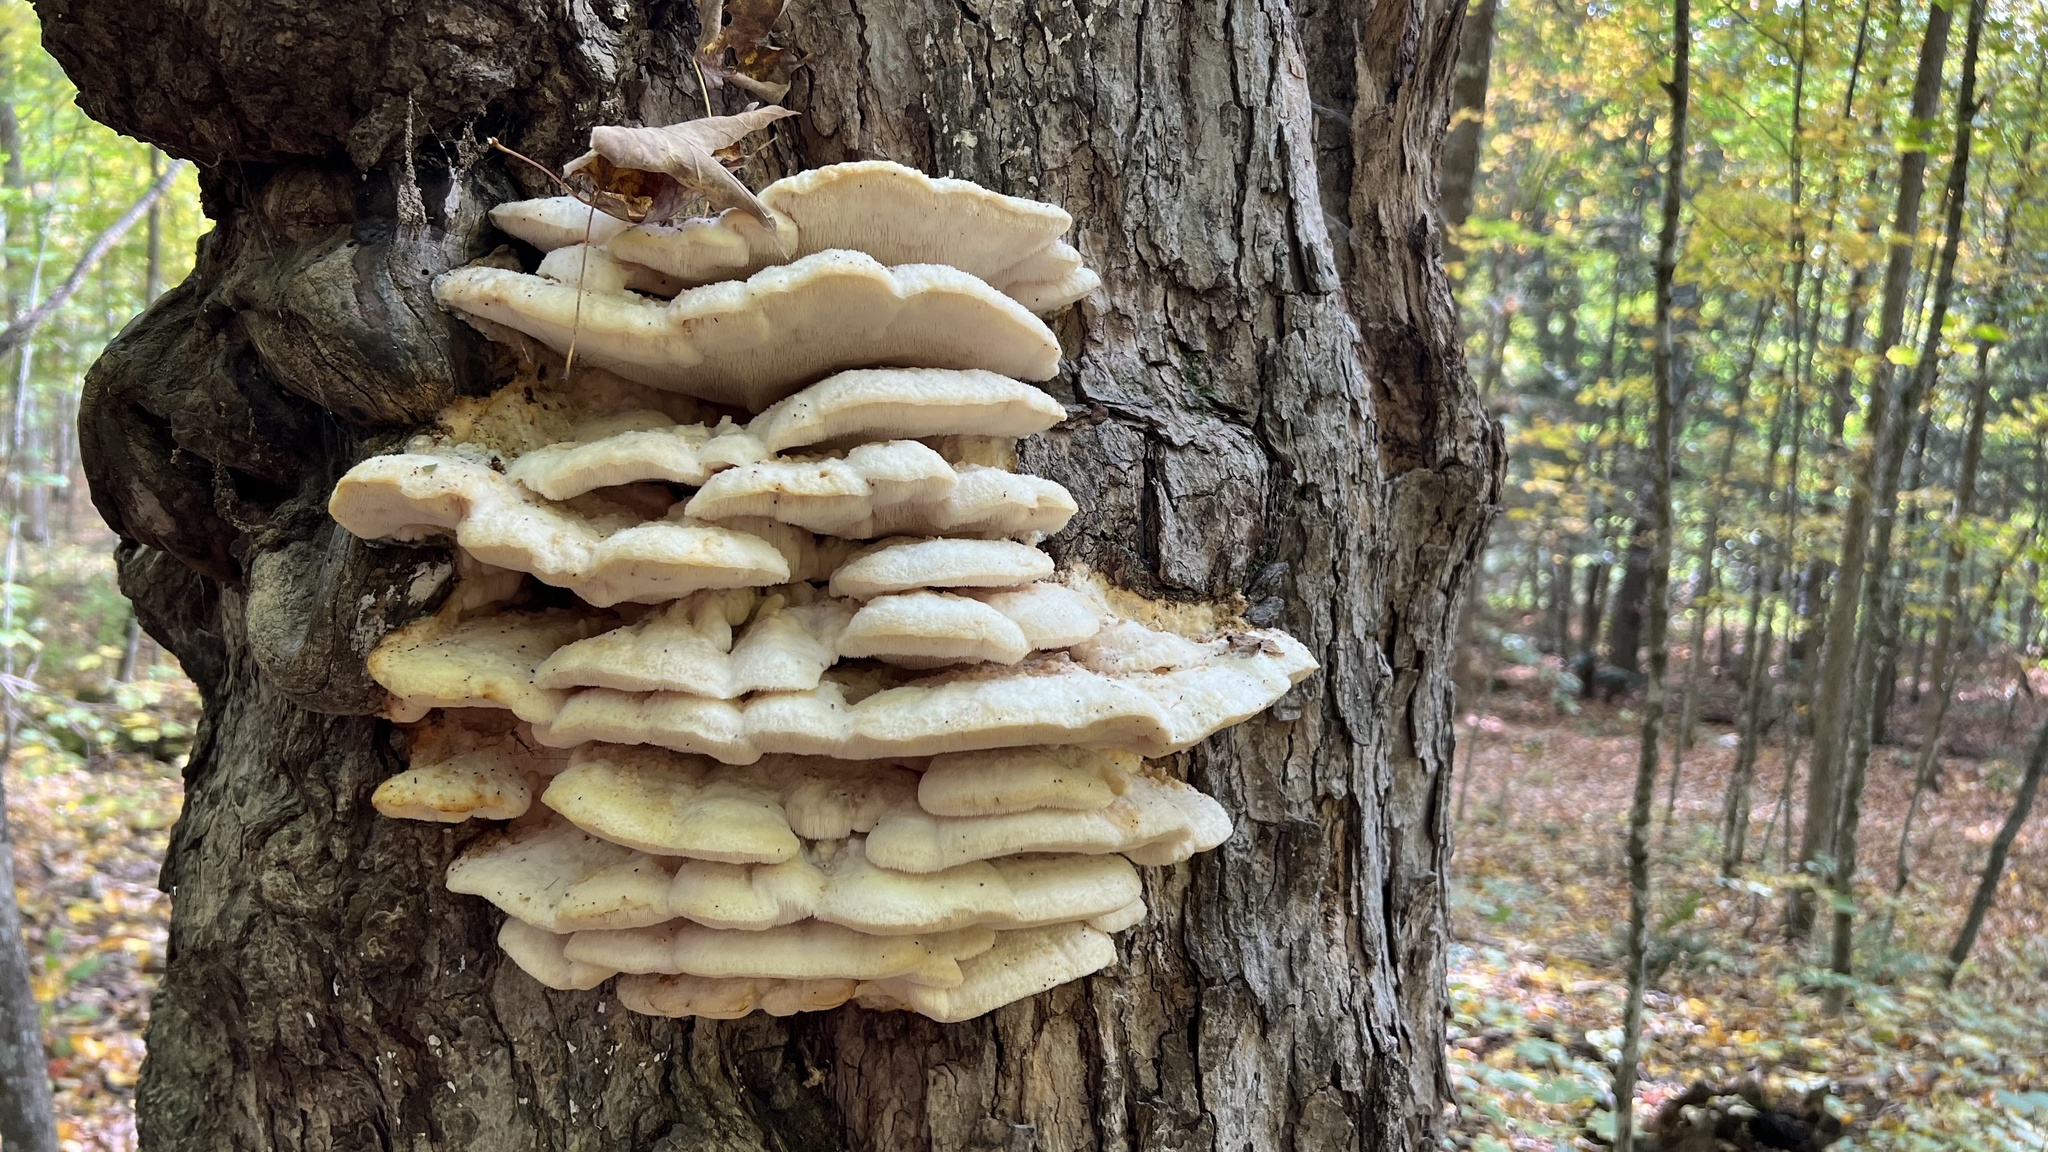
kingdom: Fungi
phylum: Basidiomycota
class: Agaricomycetes
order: Polyporales
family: Meruliaceae
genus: Climacodon
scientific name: Climacodon septentrionalis
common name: Northern tooth
